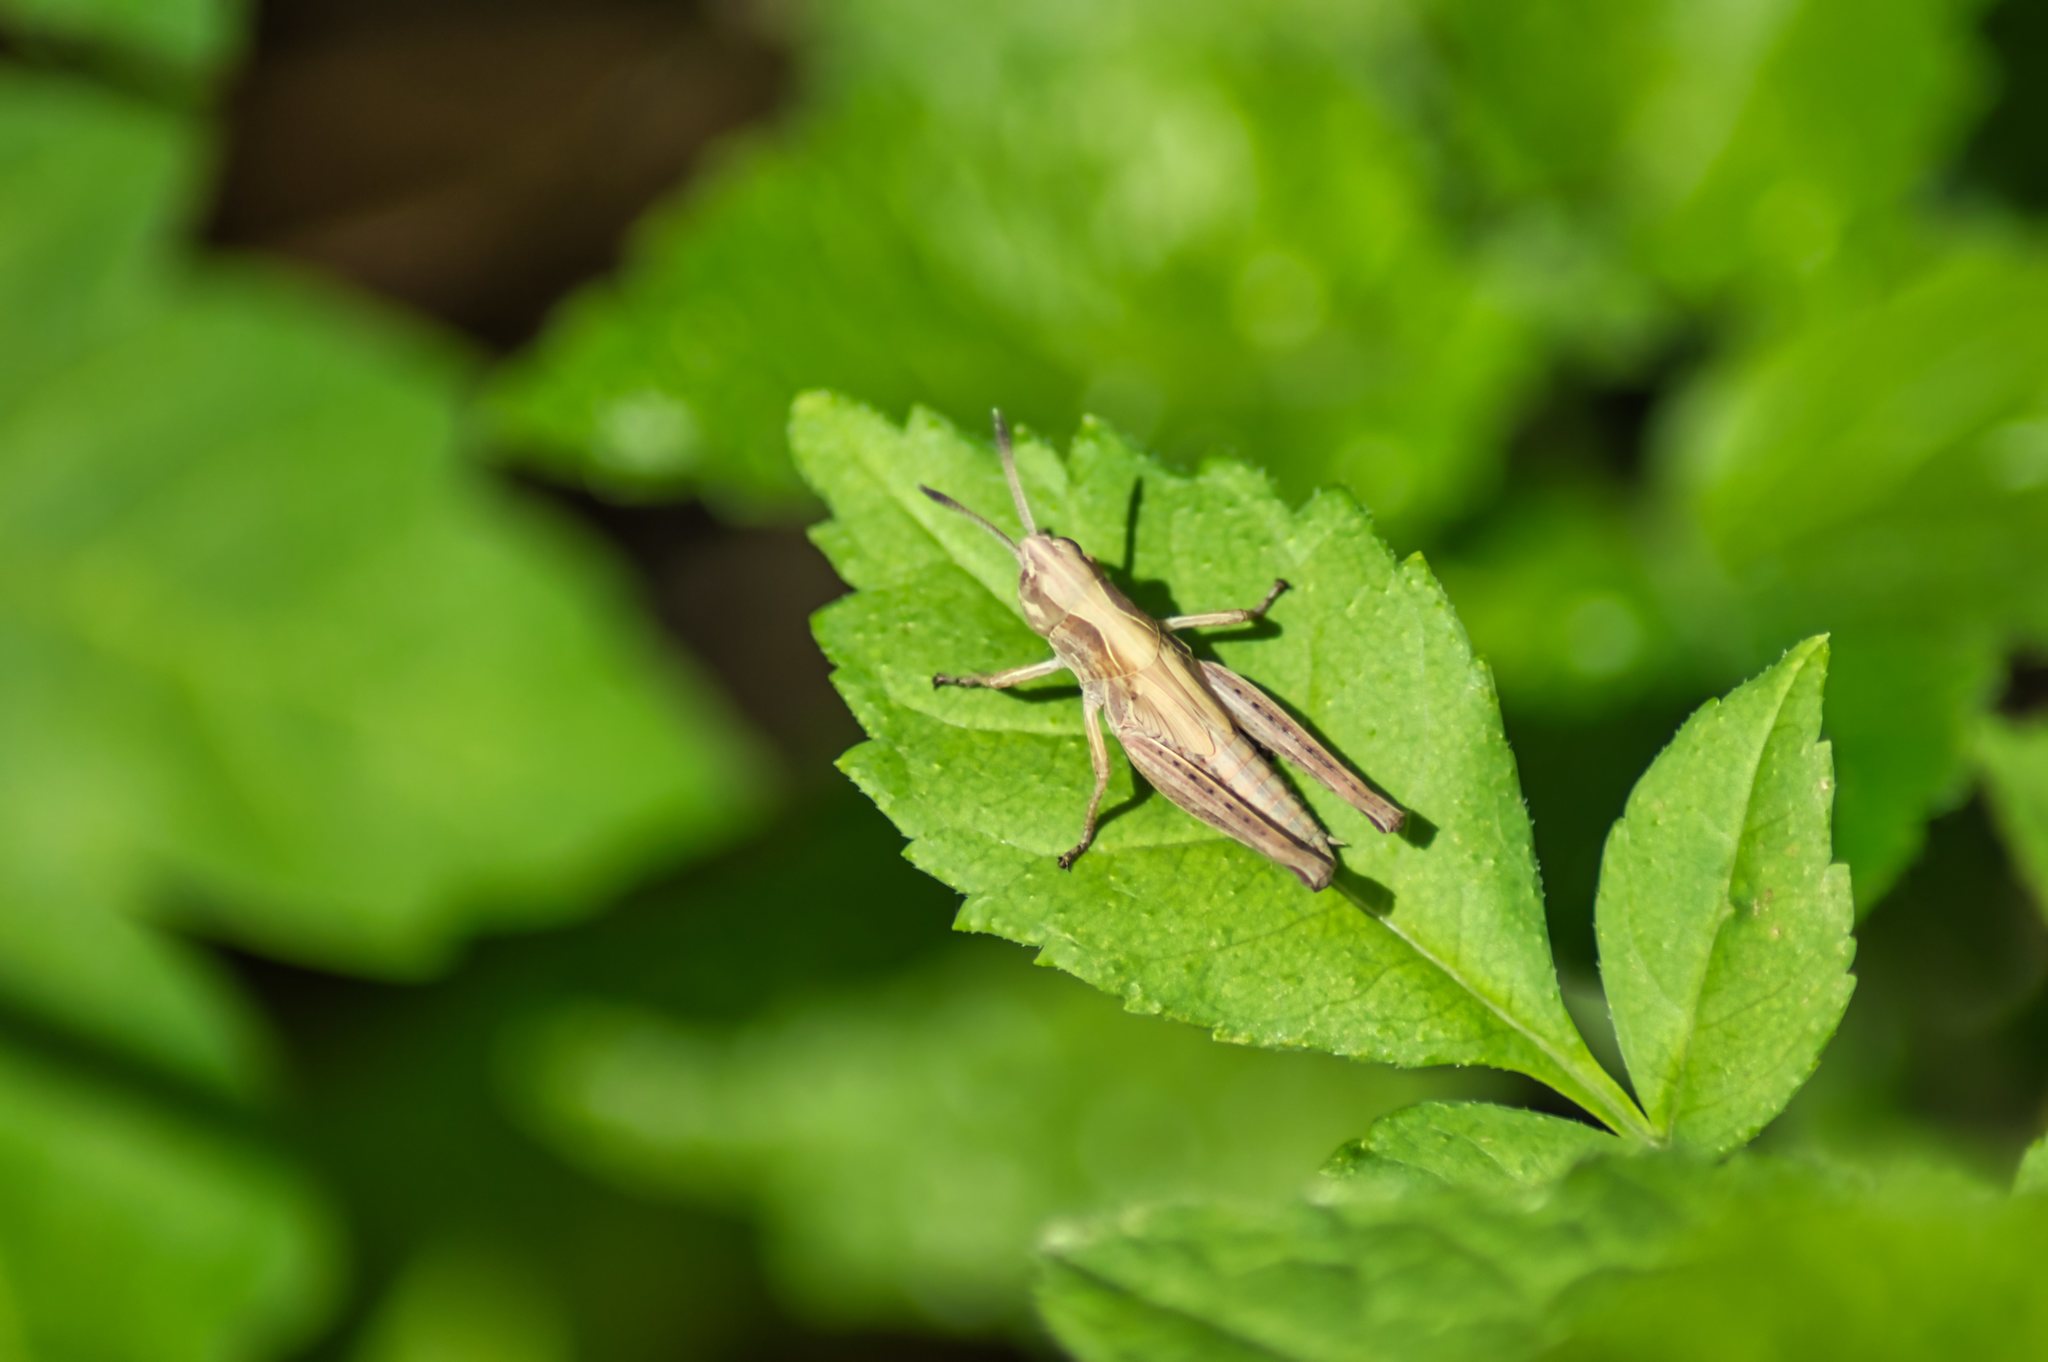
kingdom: Animalia
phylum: Arthropoda
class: Insecta
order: Orthoptera
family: Acrididae
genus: Gomphocerippus
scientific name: Gomphocerippus rufus
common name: Rufous grasshopper
